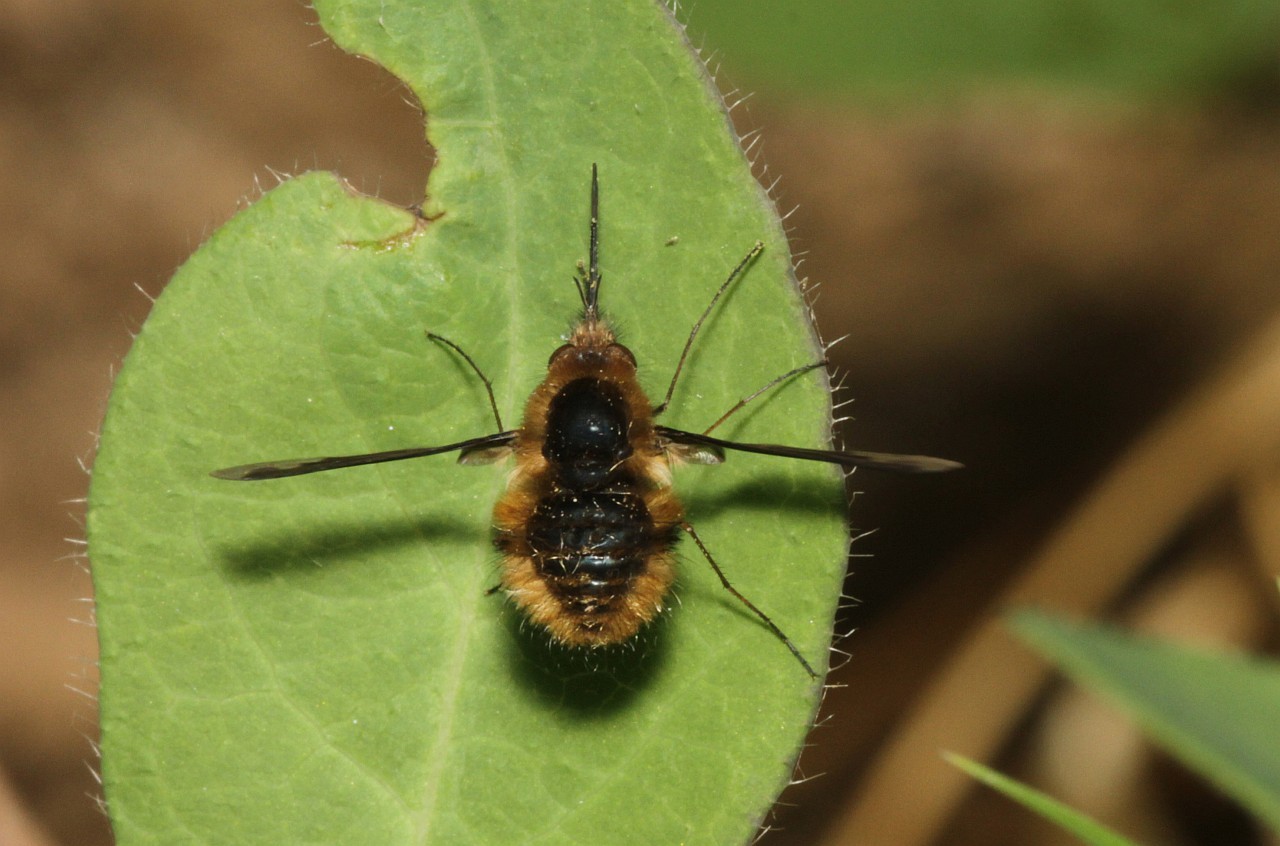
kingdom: Animalia
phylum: Arthropoda
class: Insecta
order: Diptera
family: Bombyliidae
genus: Bombylius
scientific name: Bombylius major
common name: Bee fly
